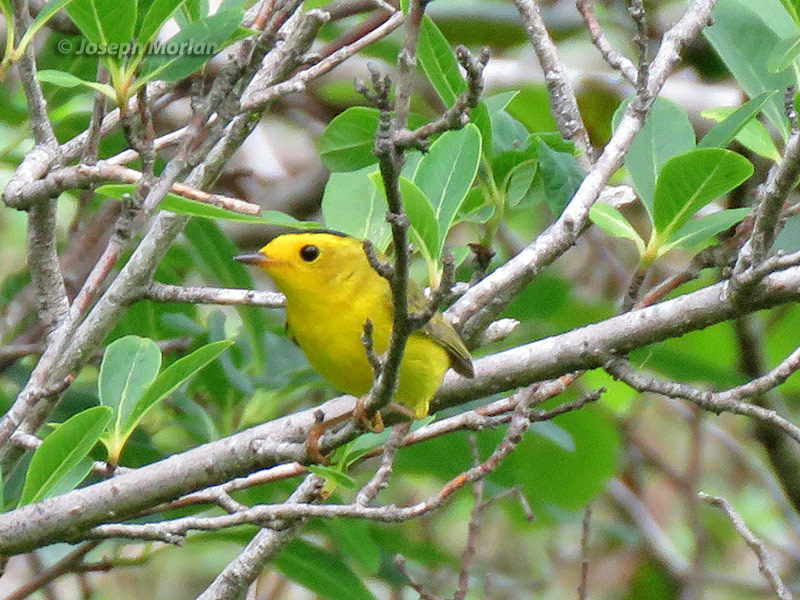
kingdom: Animalia
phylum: Chordata
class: Aves
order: Passeriformes
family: Parulidae
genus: Cardellina
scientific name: Cardellina pusilla
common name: Wilson's warbler
